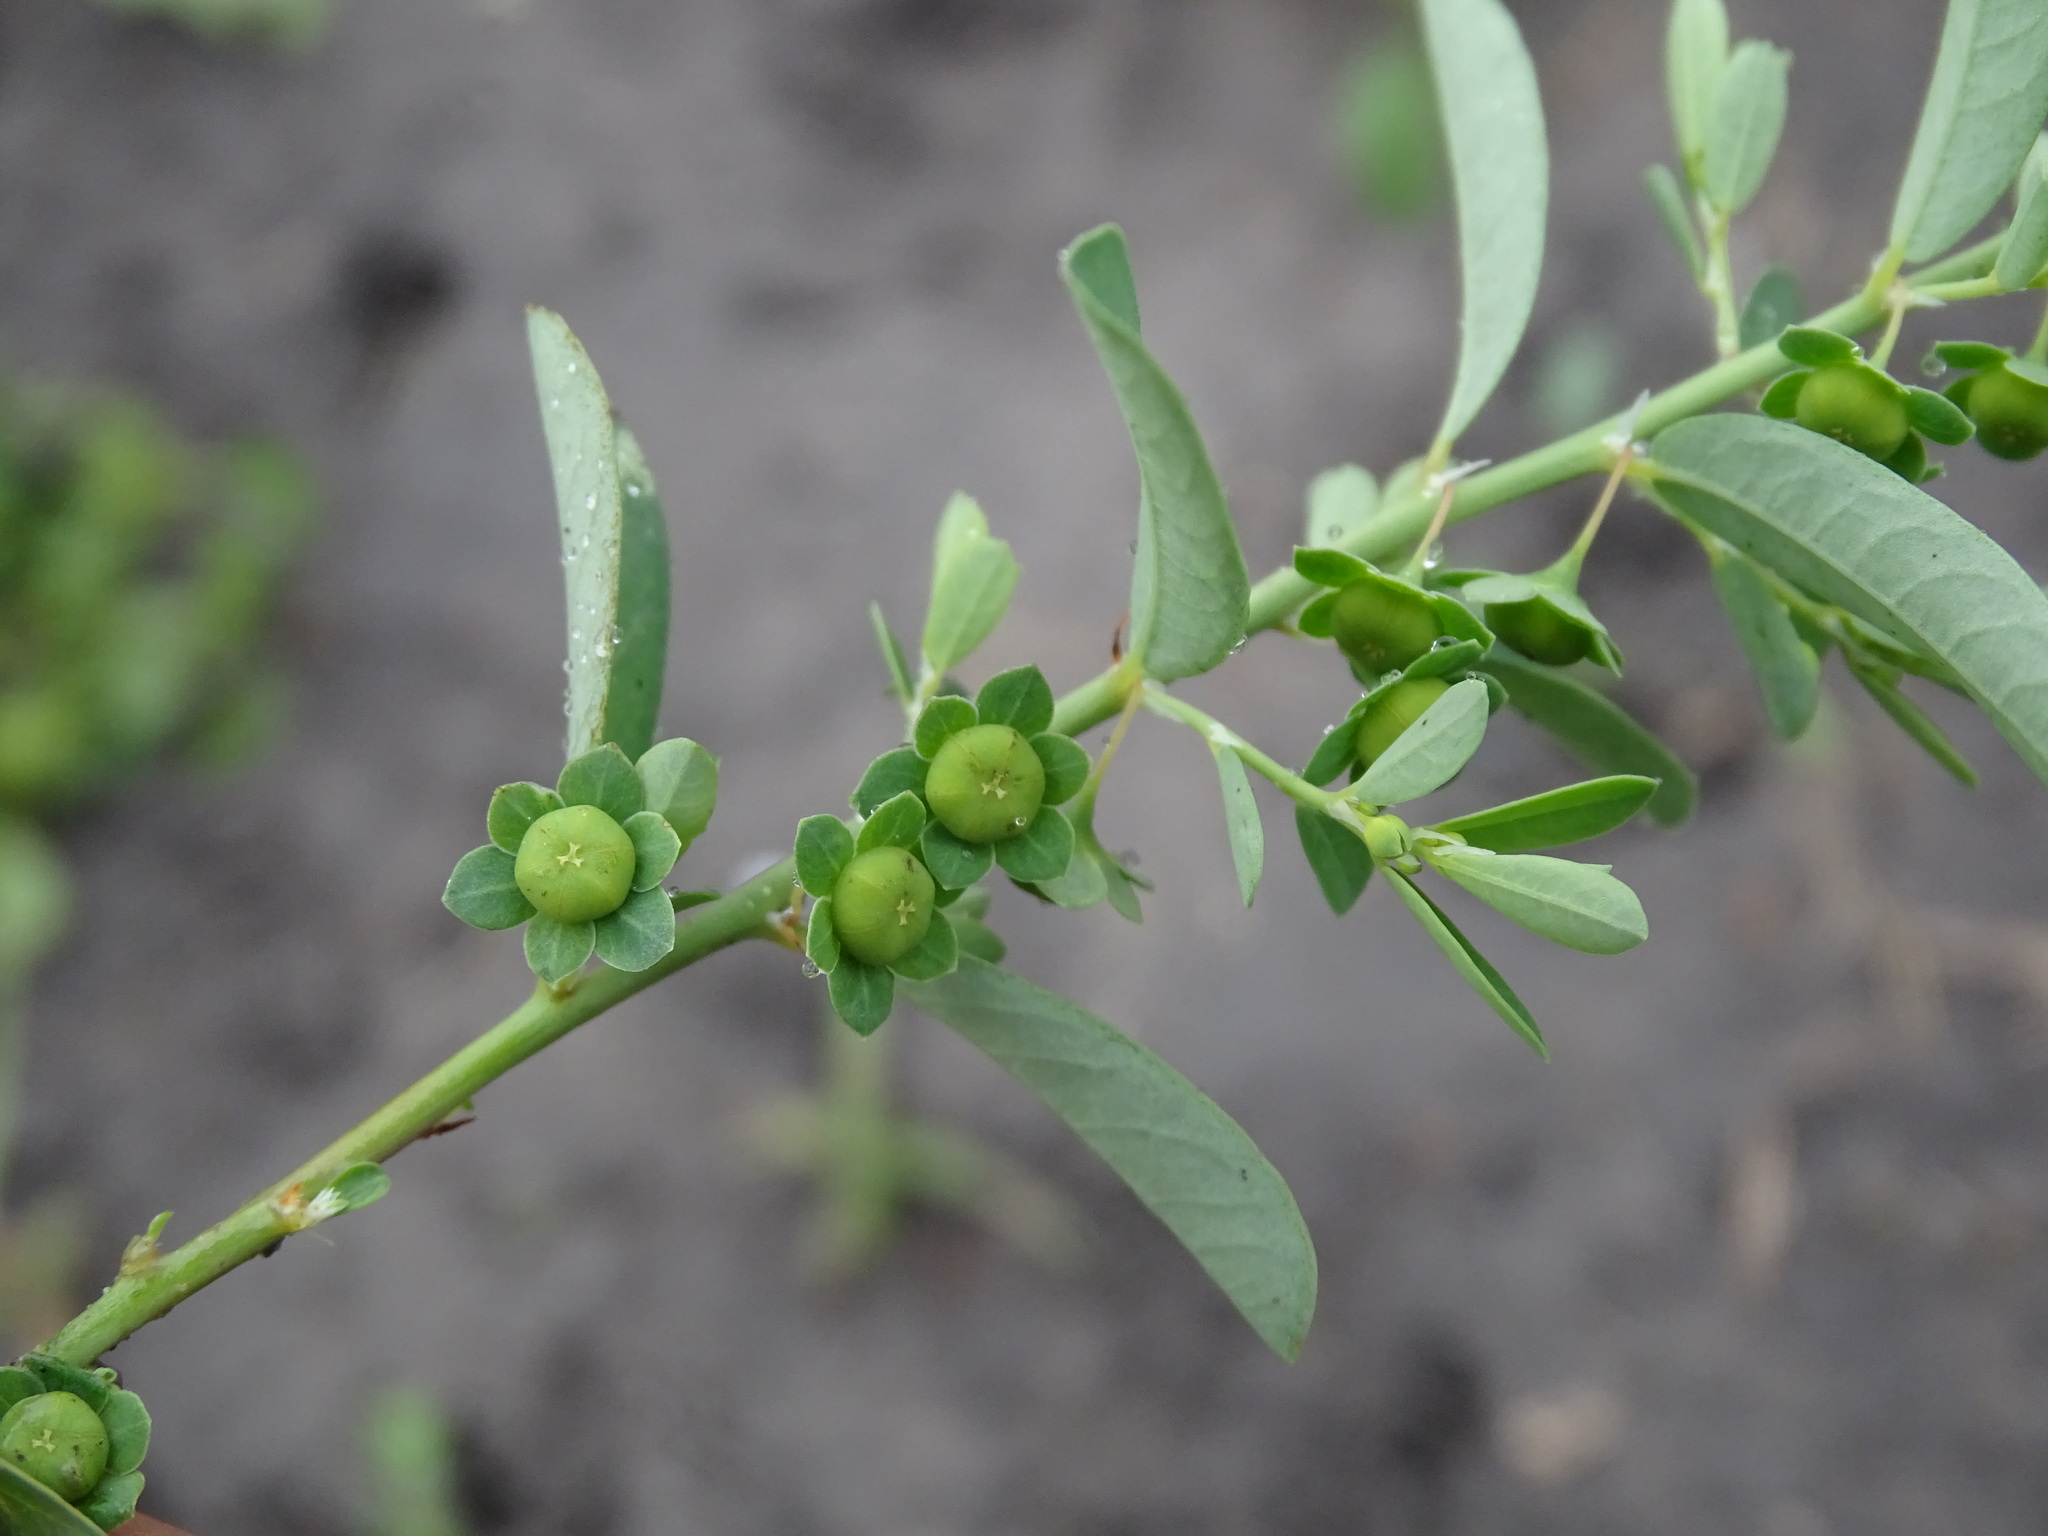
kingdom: Plantae
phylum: Tracheophyta
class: Magnoliopsida
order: Malpighiales
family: Phyllanthaceae
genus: Phyllanthus
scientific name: Phyllanthus polygonoides
